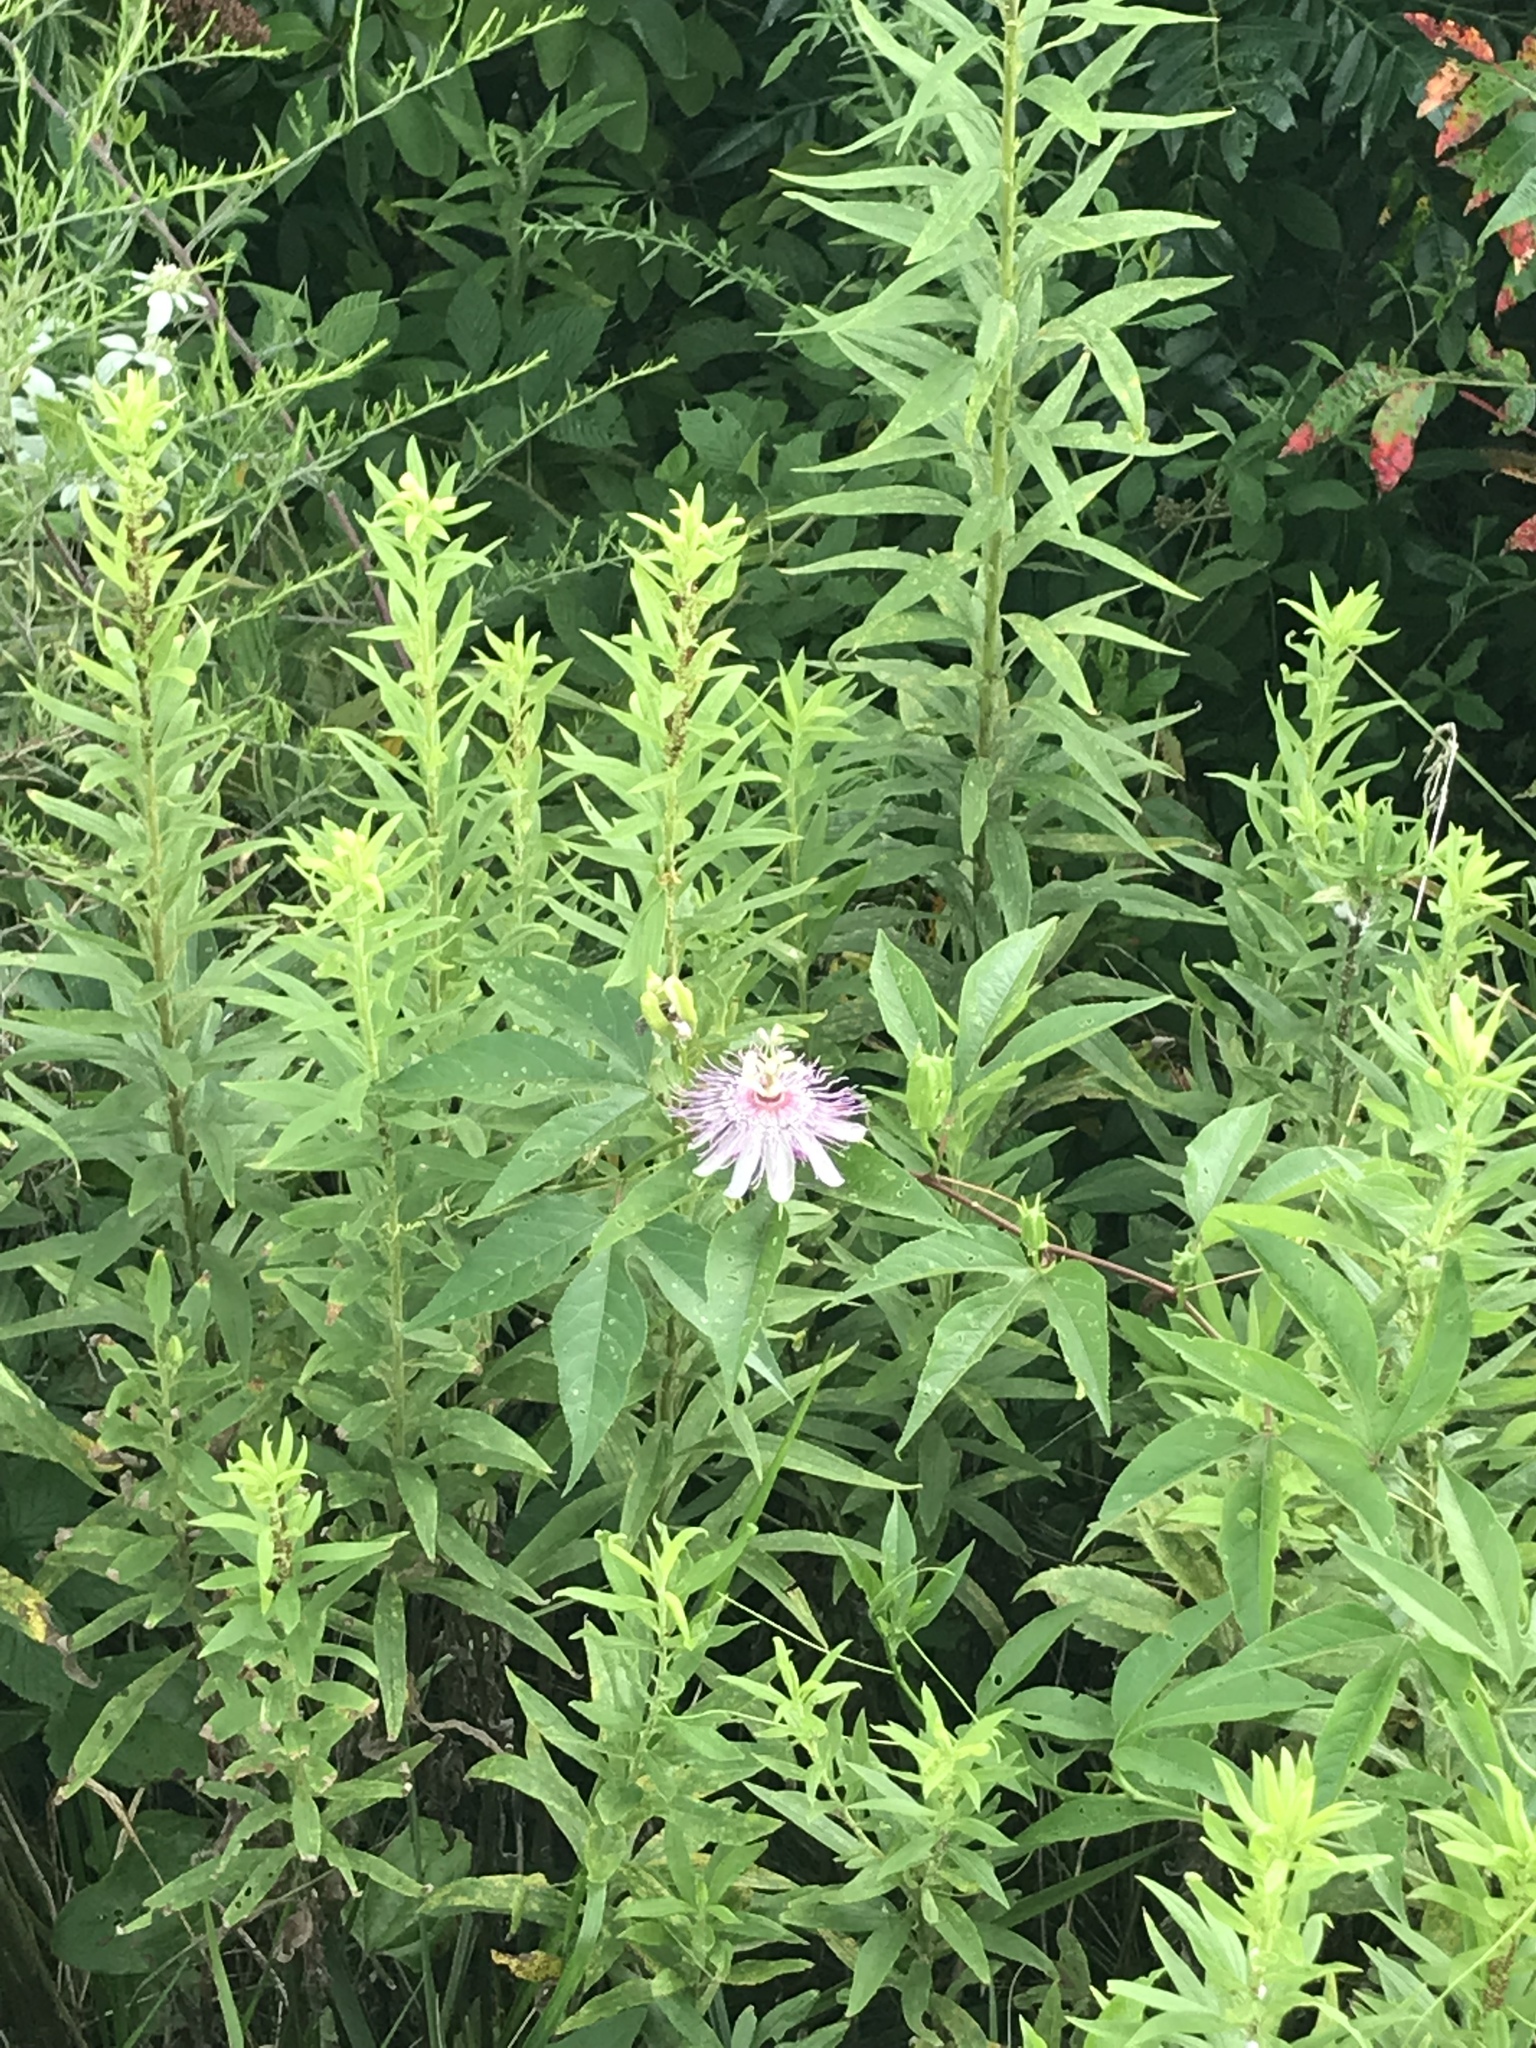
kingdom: Plantae
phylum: Tracheophyta
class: Magnoliopsida
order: Malpighiales
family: Passifloraceae
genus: Passiflora
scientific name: Passiflora incarnata
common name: Apricot-vine
